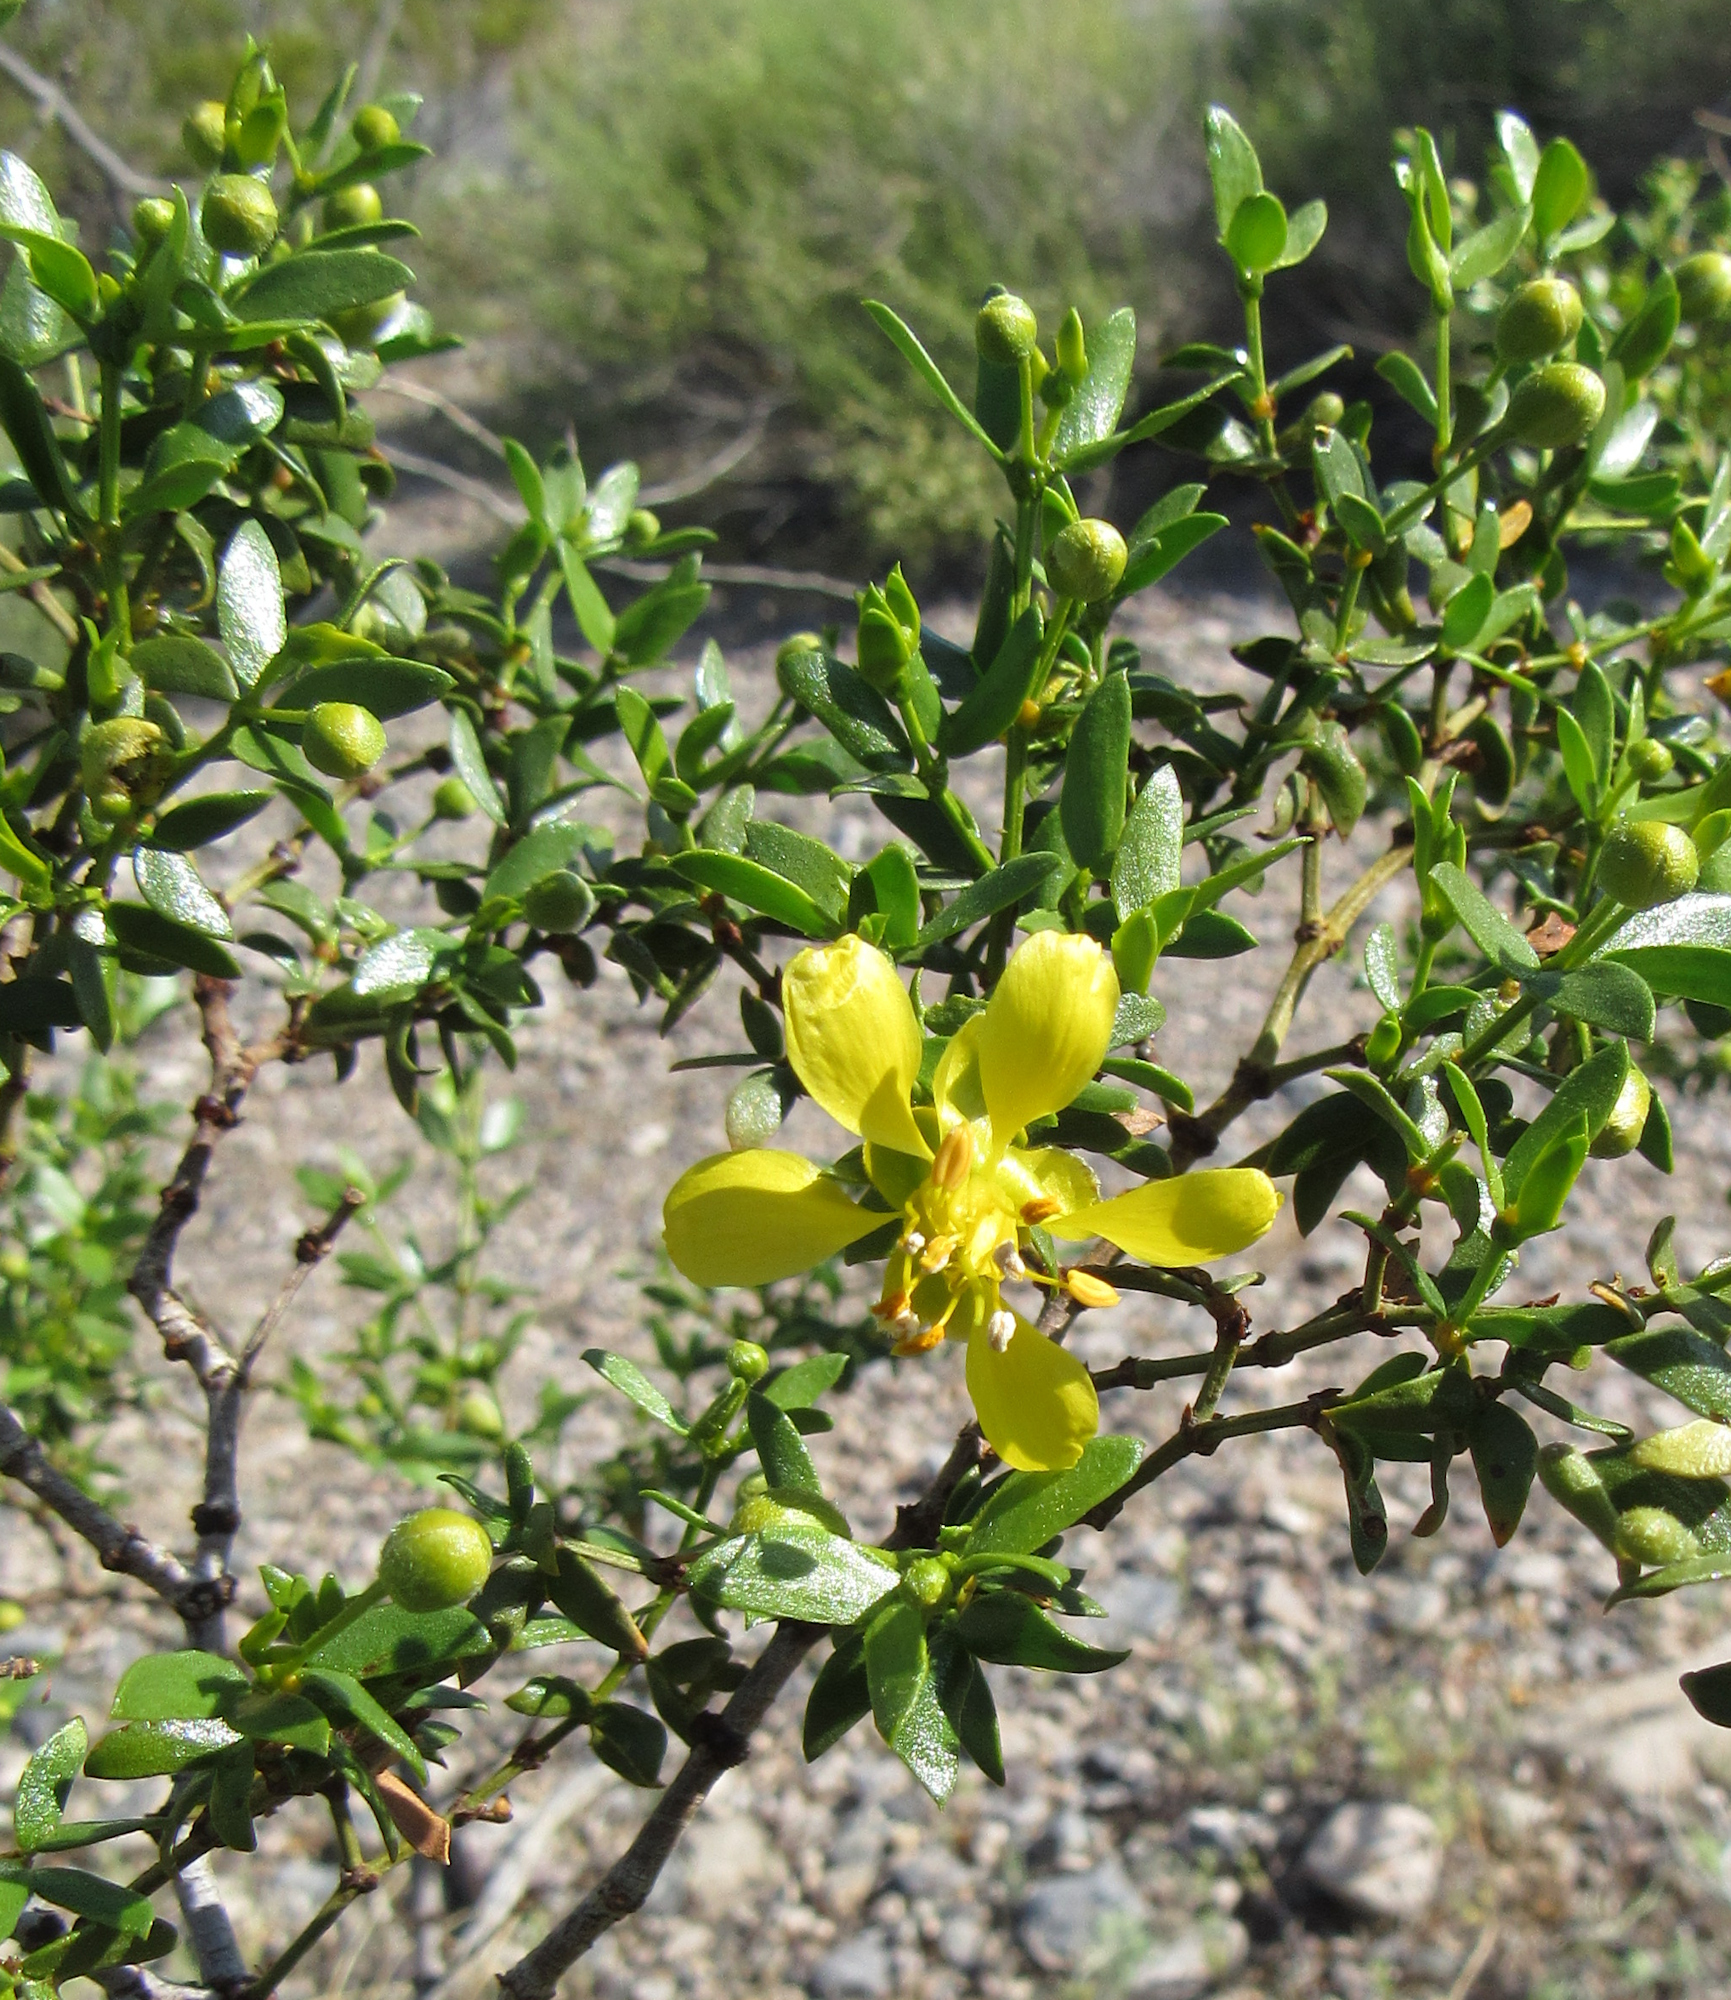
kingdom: Plantae
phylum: Tracheophyta
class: Magnoliopsida
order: Zygophyllales
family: Zygophyllaceae
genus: Larrea
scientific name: Larrea tridentata
